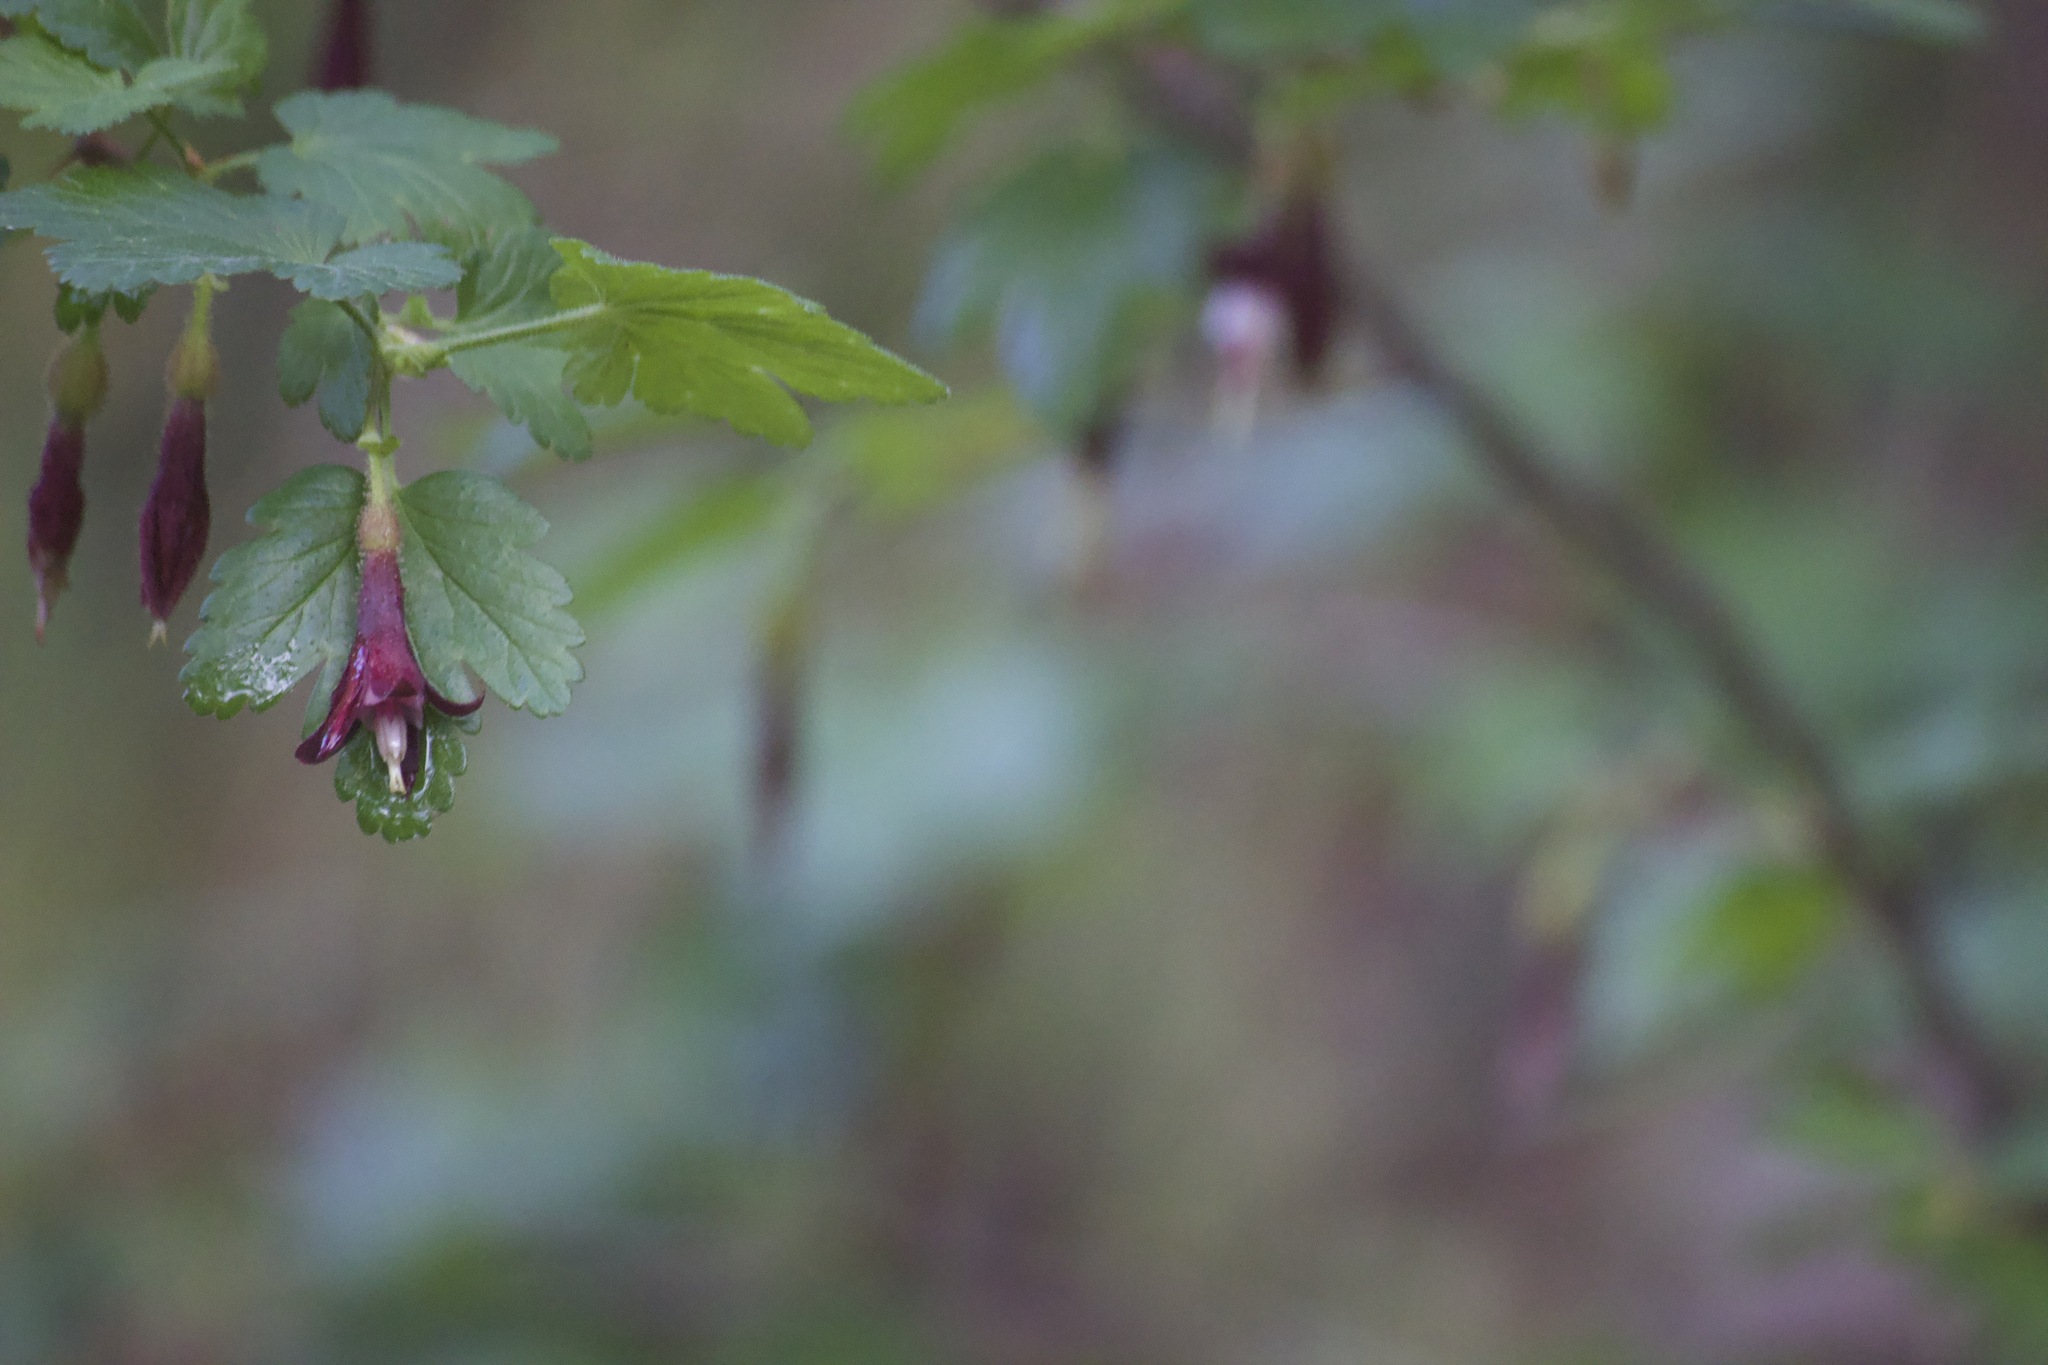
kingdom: Plantae
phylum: Tracheophyta
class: Magnoliopsida
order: Saxifragales
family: Grossulariaceae
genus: Ribes
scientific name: Ribes amarum
